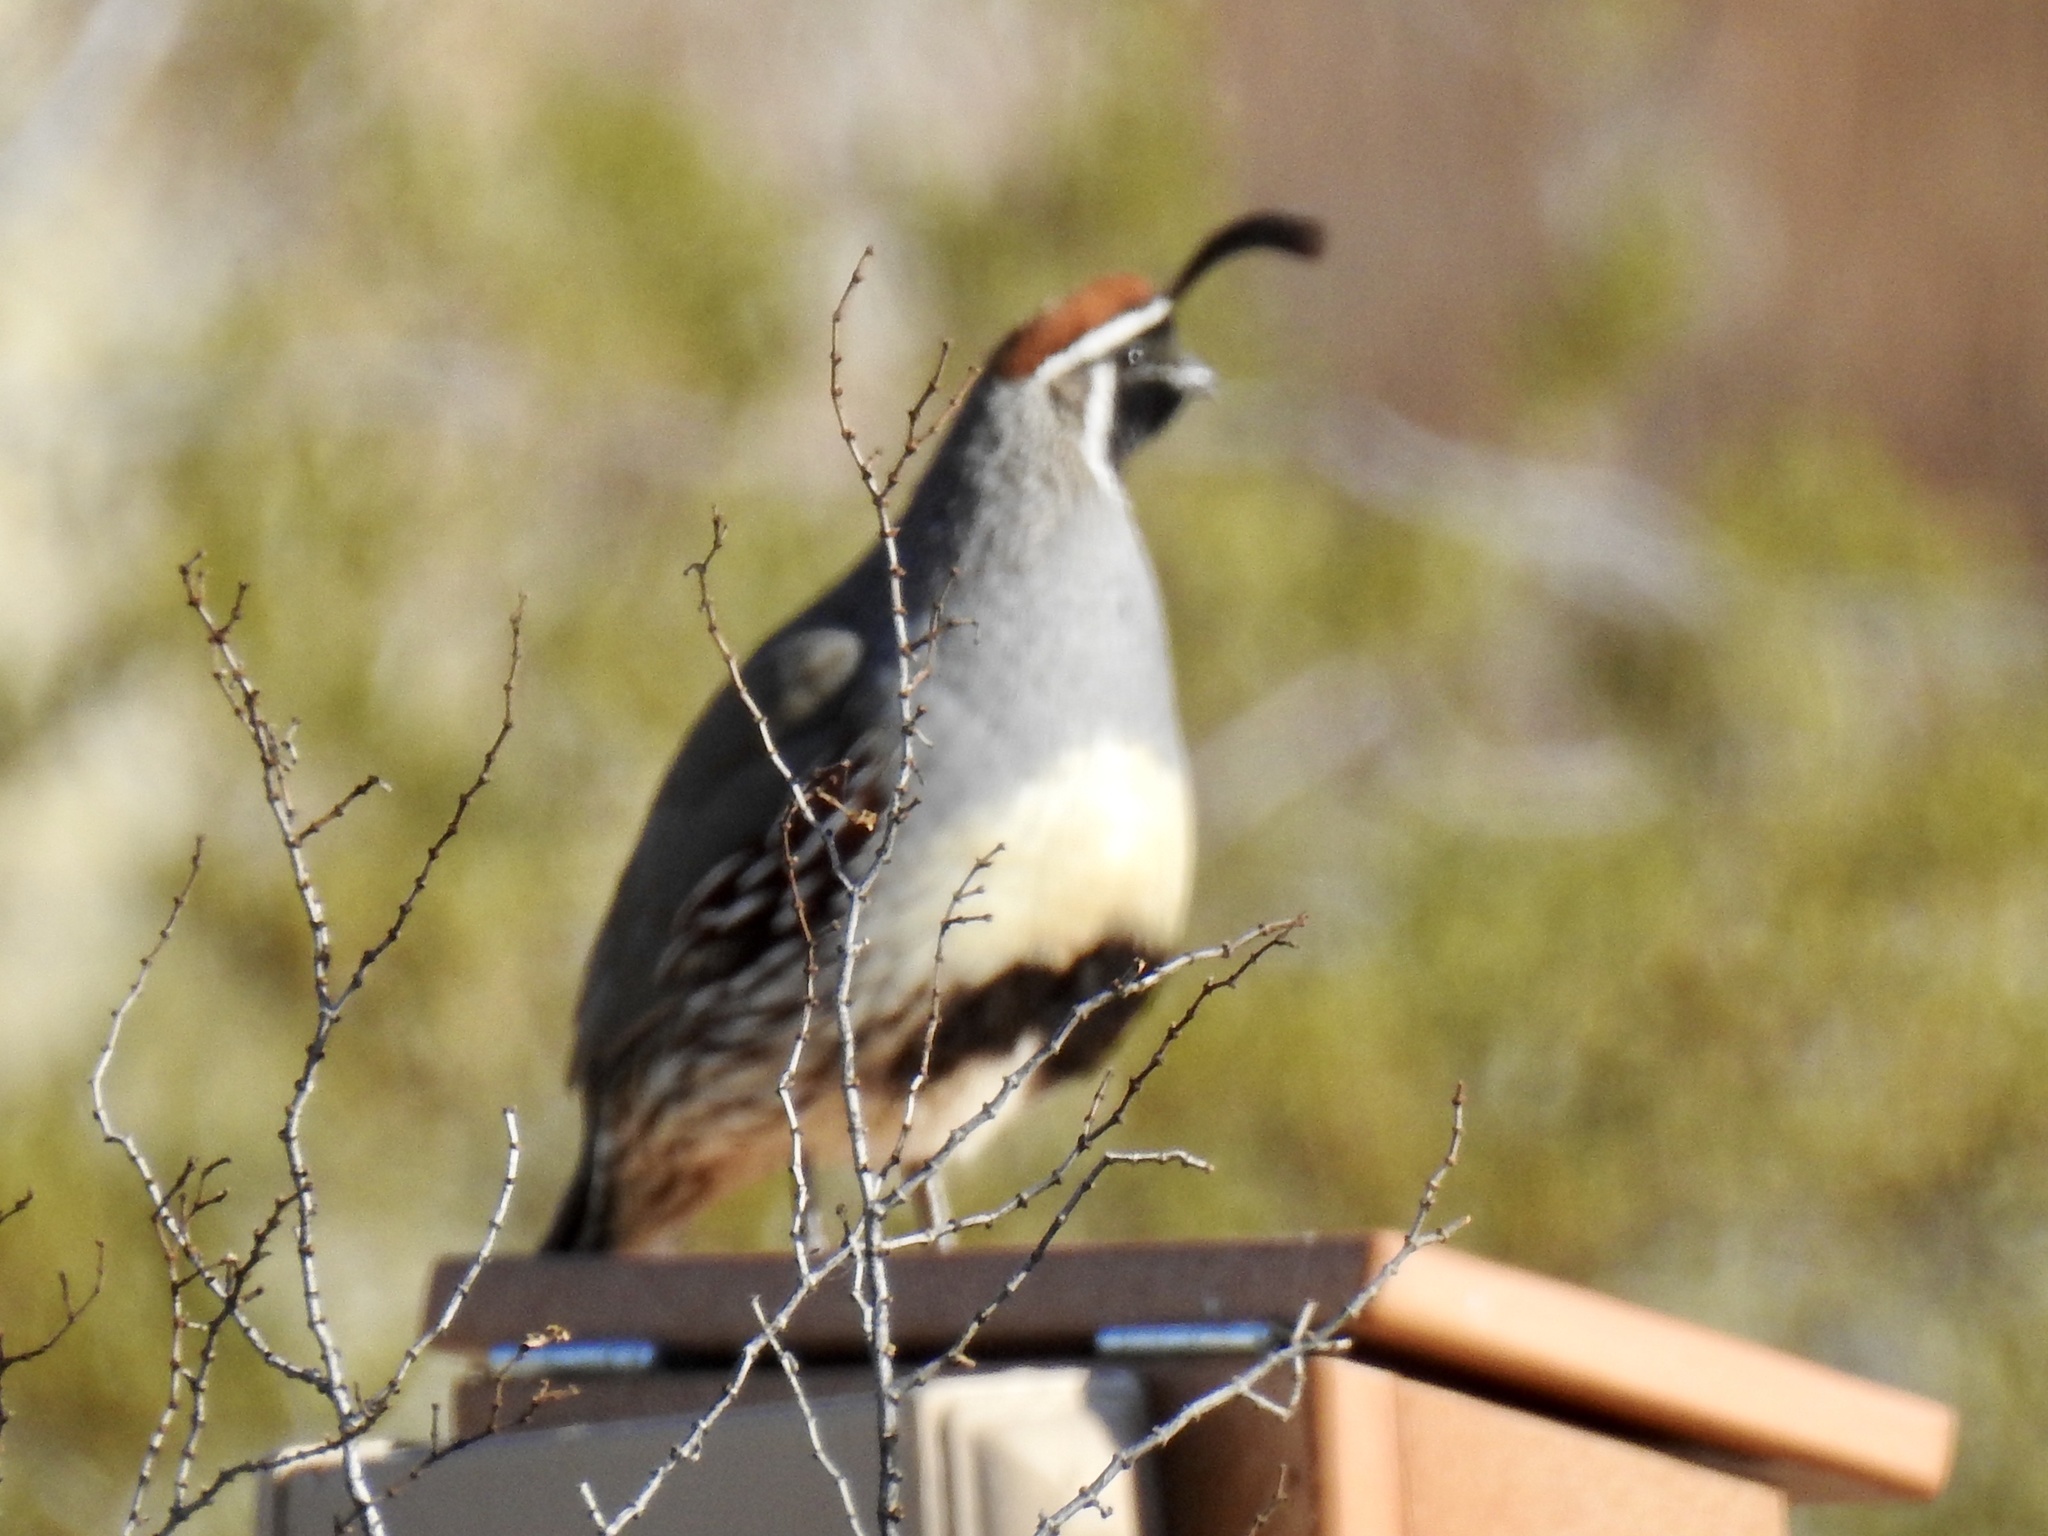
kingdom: Animalia
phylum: Chordata
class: Aves
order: Galliformes
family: Odontophoridae
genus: Callipepla
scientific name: Callipepla gambelii
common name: Gambel's quail
